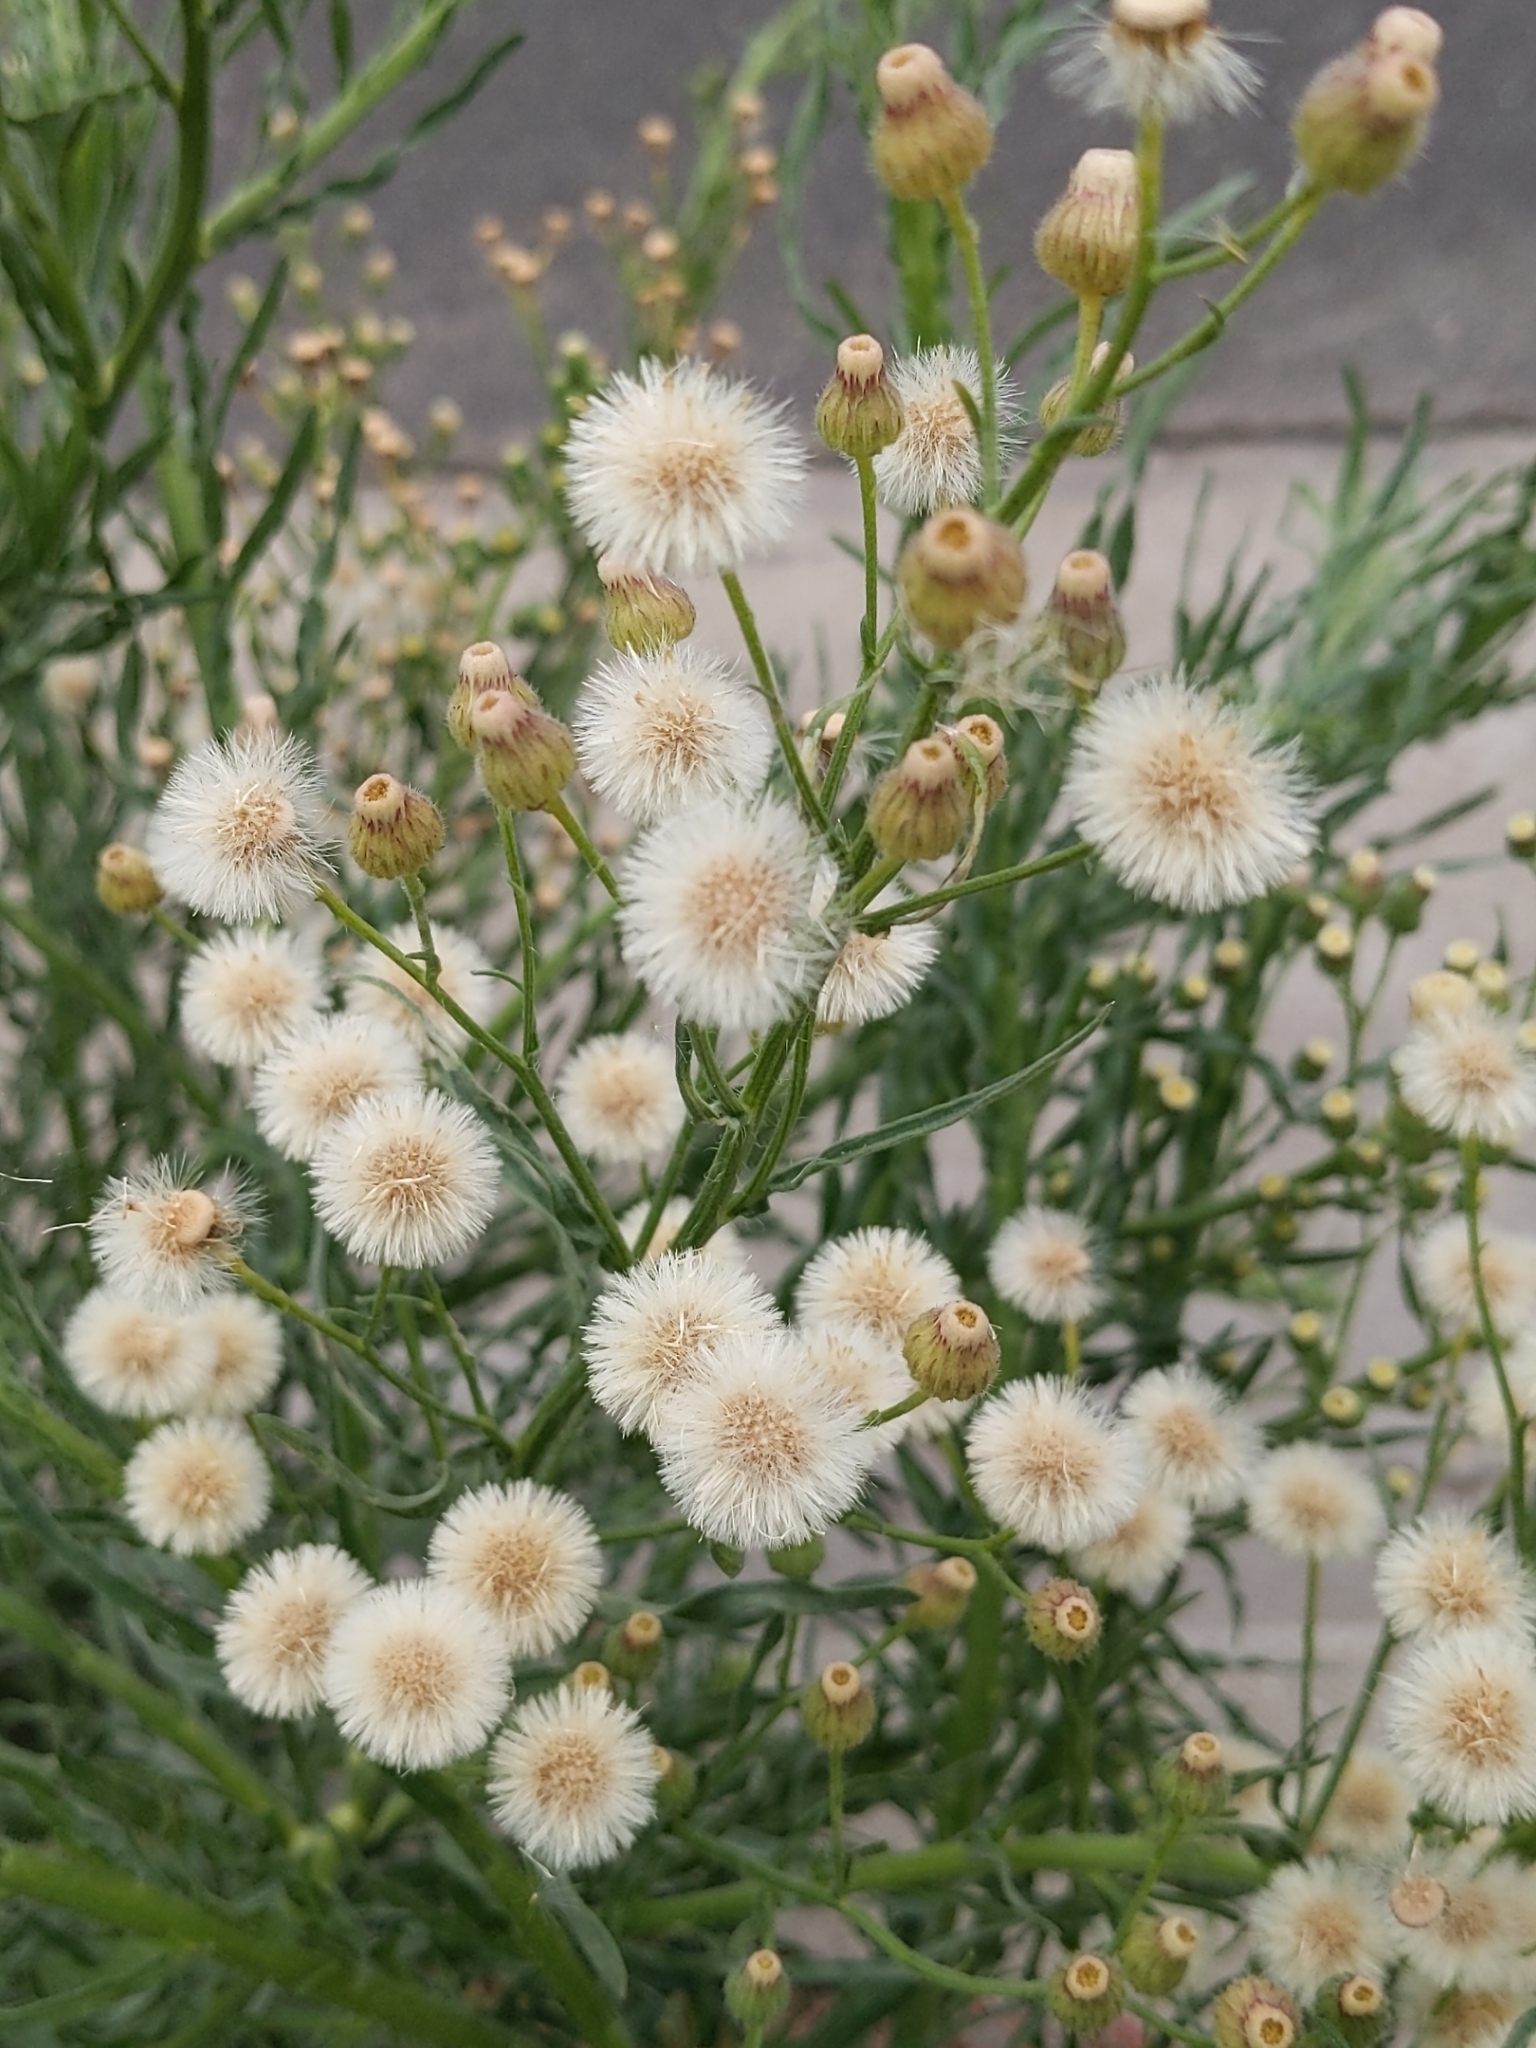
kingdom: Plantae
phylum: Tracheophyta
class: Magnoliopsida
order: Asterales
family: Asteraceae
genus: Erigeron
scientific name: Erigeron bonariensis
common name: Argentine fleabane
